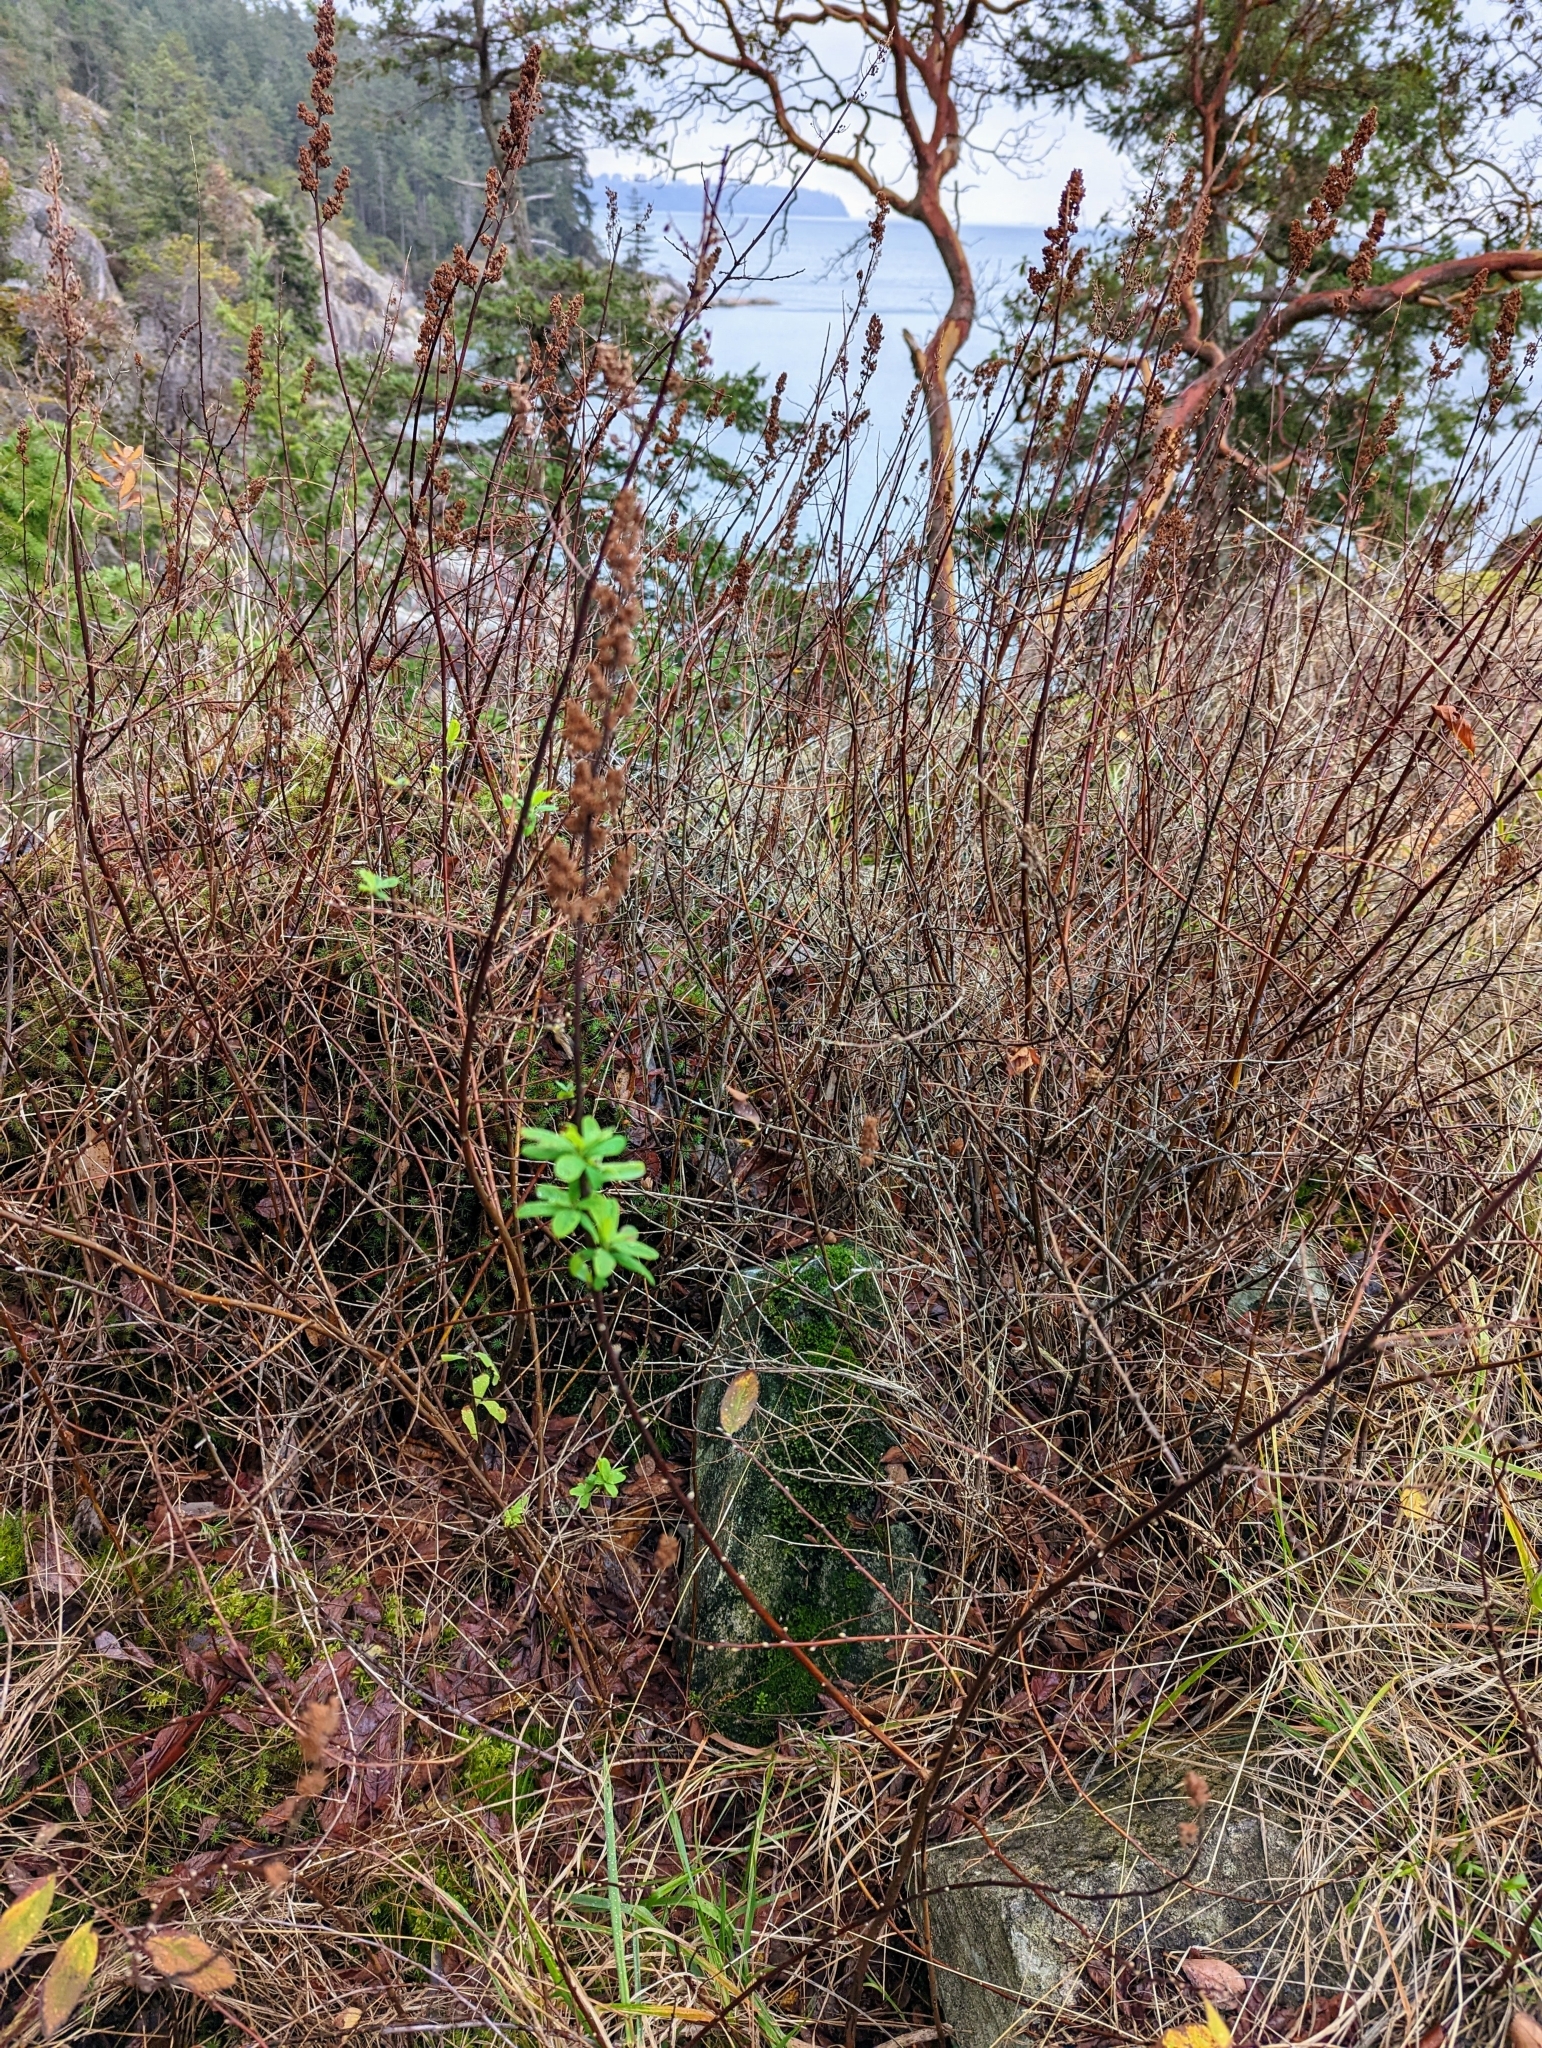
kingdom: Plantae
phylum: Tracheophyta
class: Magnoliopsida
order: Rosales
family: Rosaceae
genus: Spiraea
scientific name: Spiraea douglasii
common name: Steeplebush
